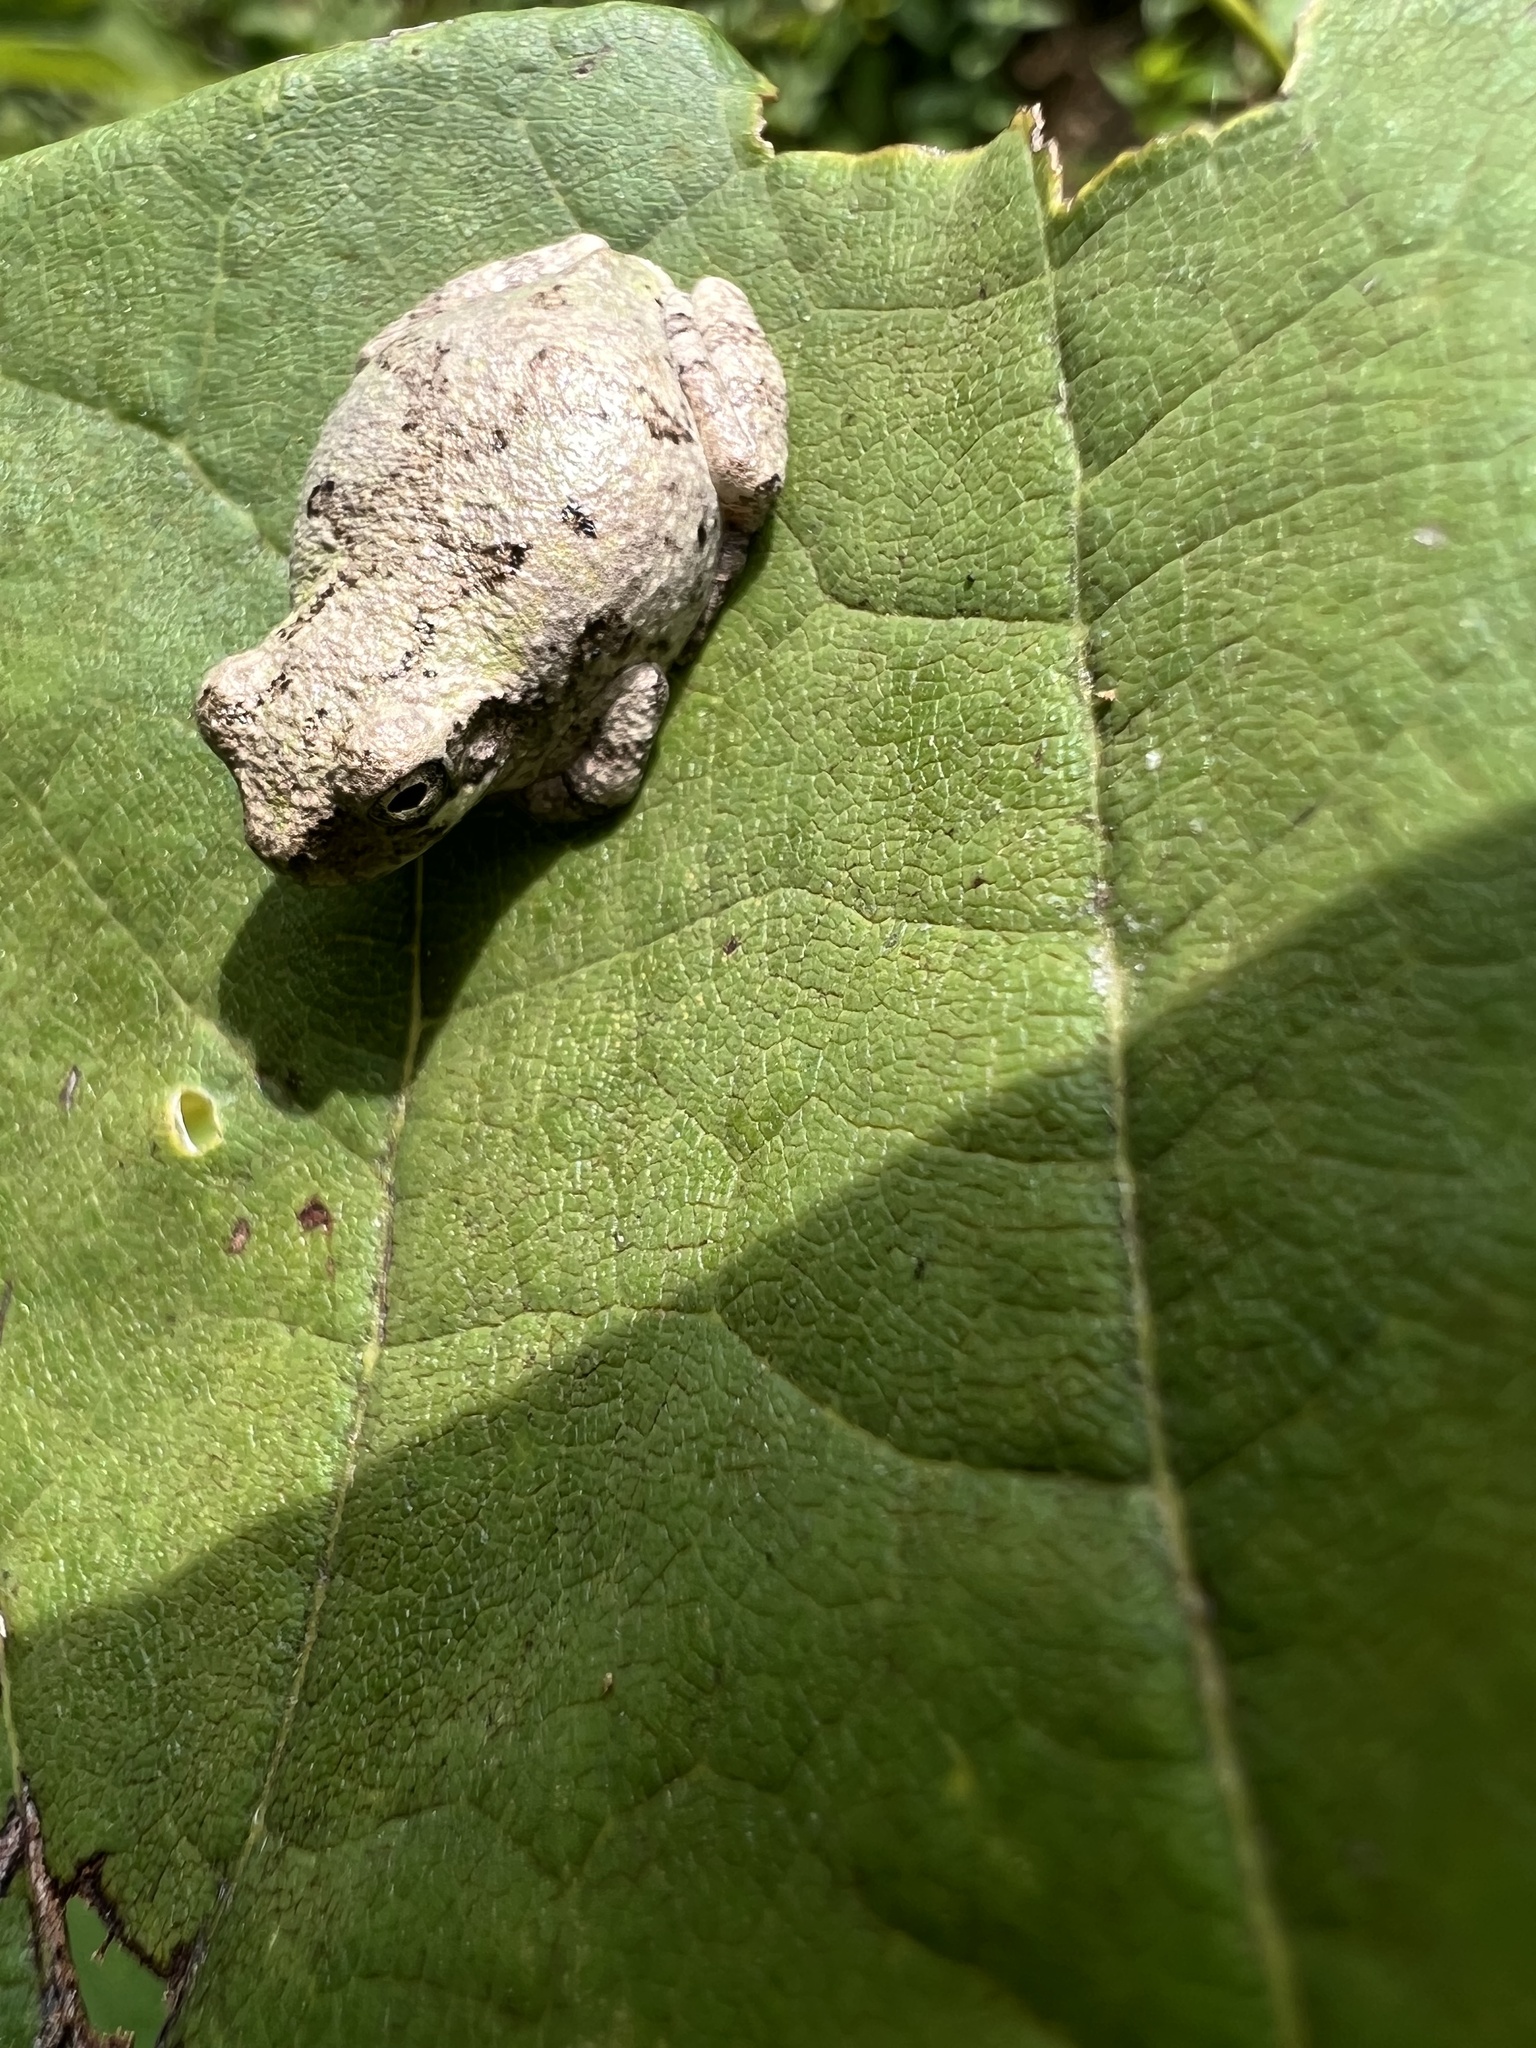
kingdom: Animalia
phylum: Chordata
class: Amphibia
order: Anura
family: Hylidae
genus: Hyla
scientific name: Hyla
